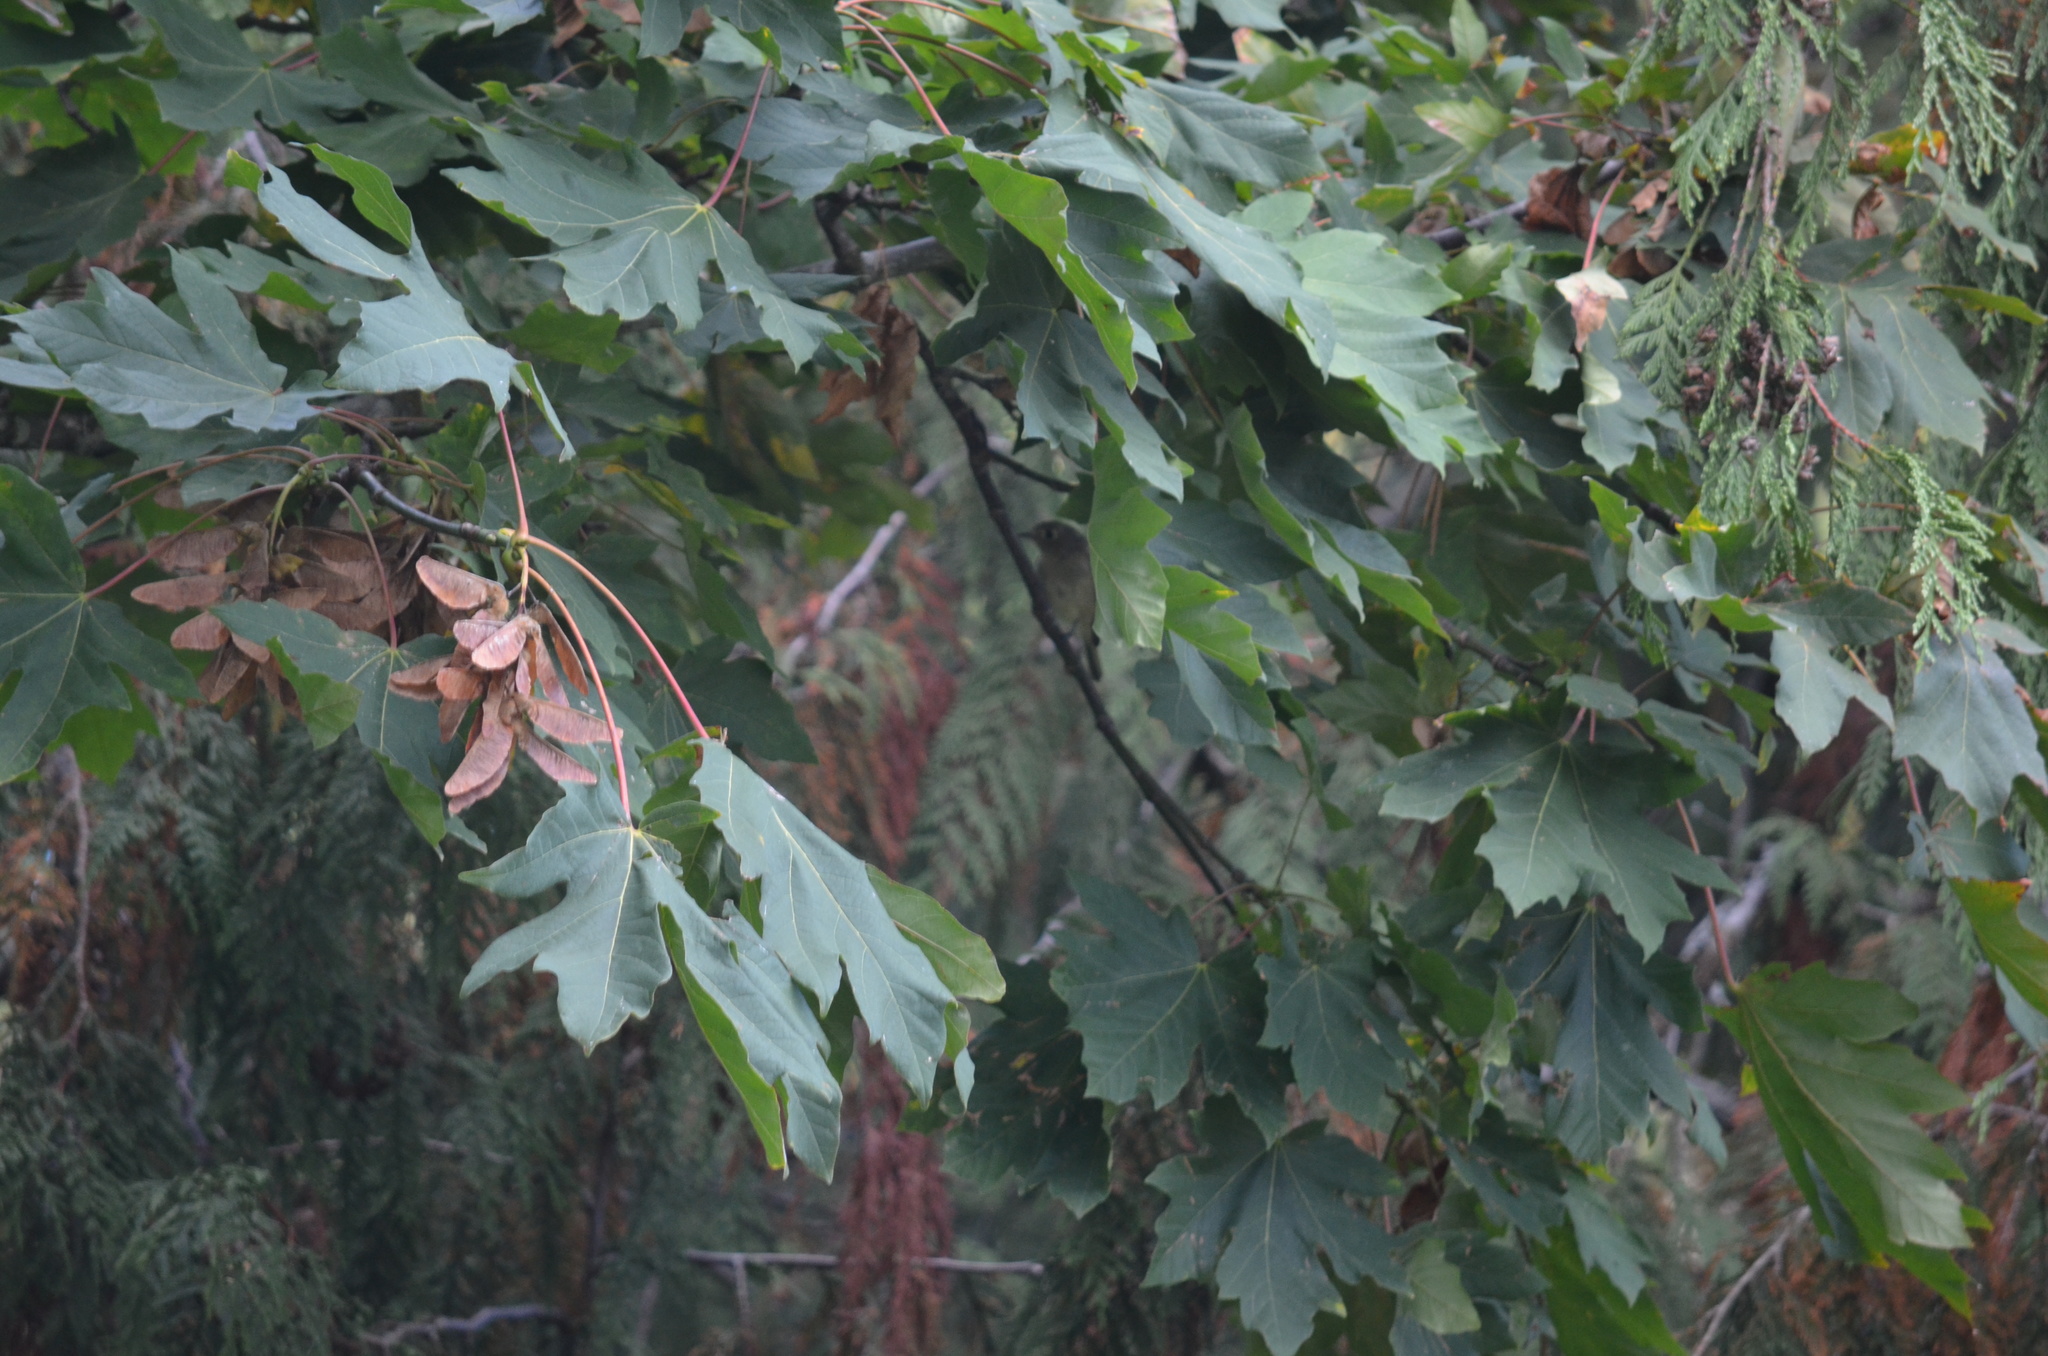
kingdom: Animalia
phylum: Chordata
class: Aves
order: Passeriformes
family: Vireonidae
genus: Vireo
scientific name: Vireo huttoni
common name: Hutton's vireo
